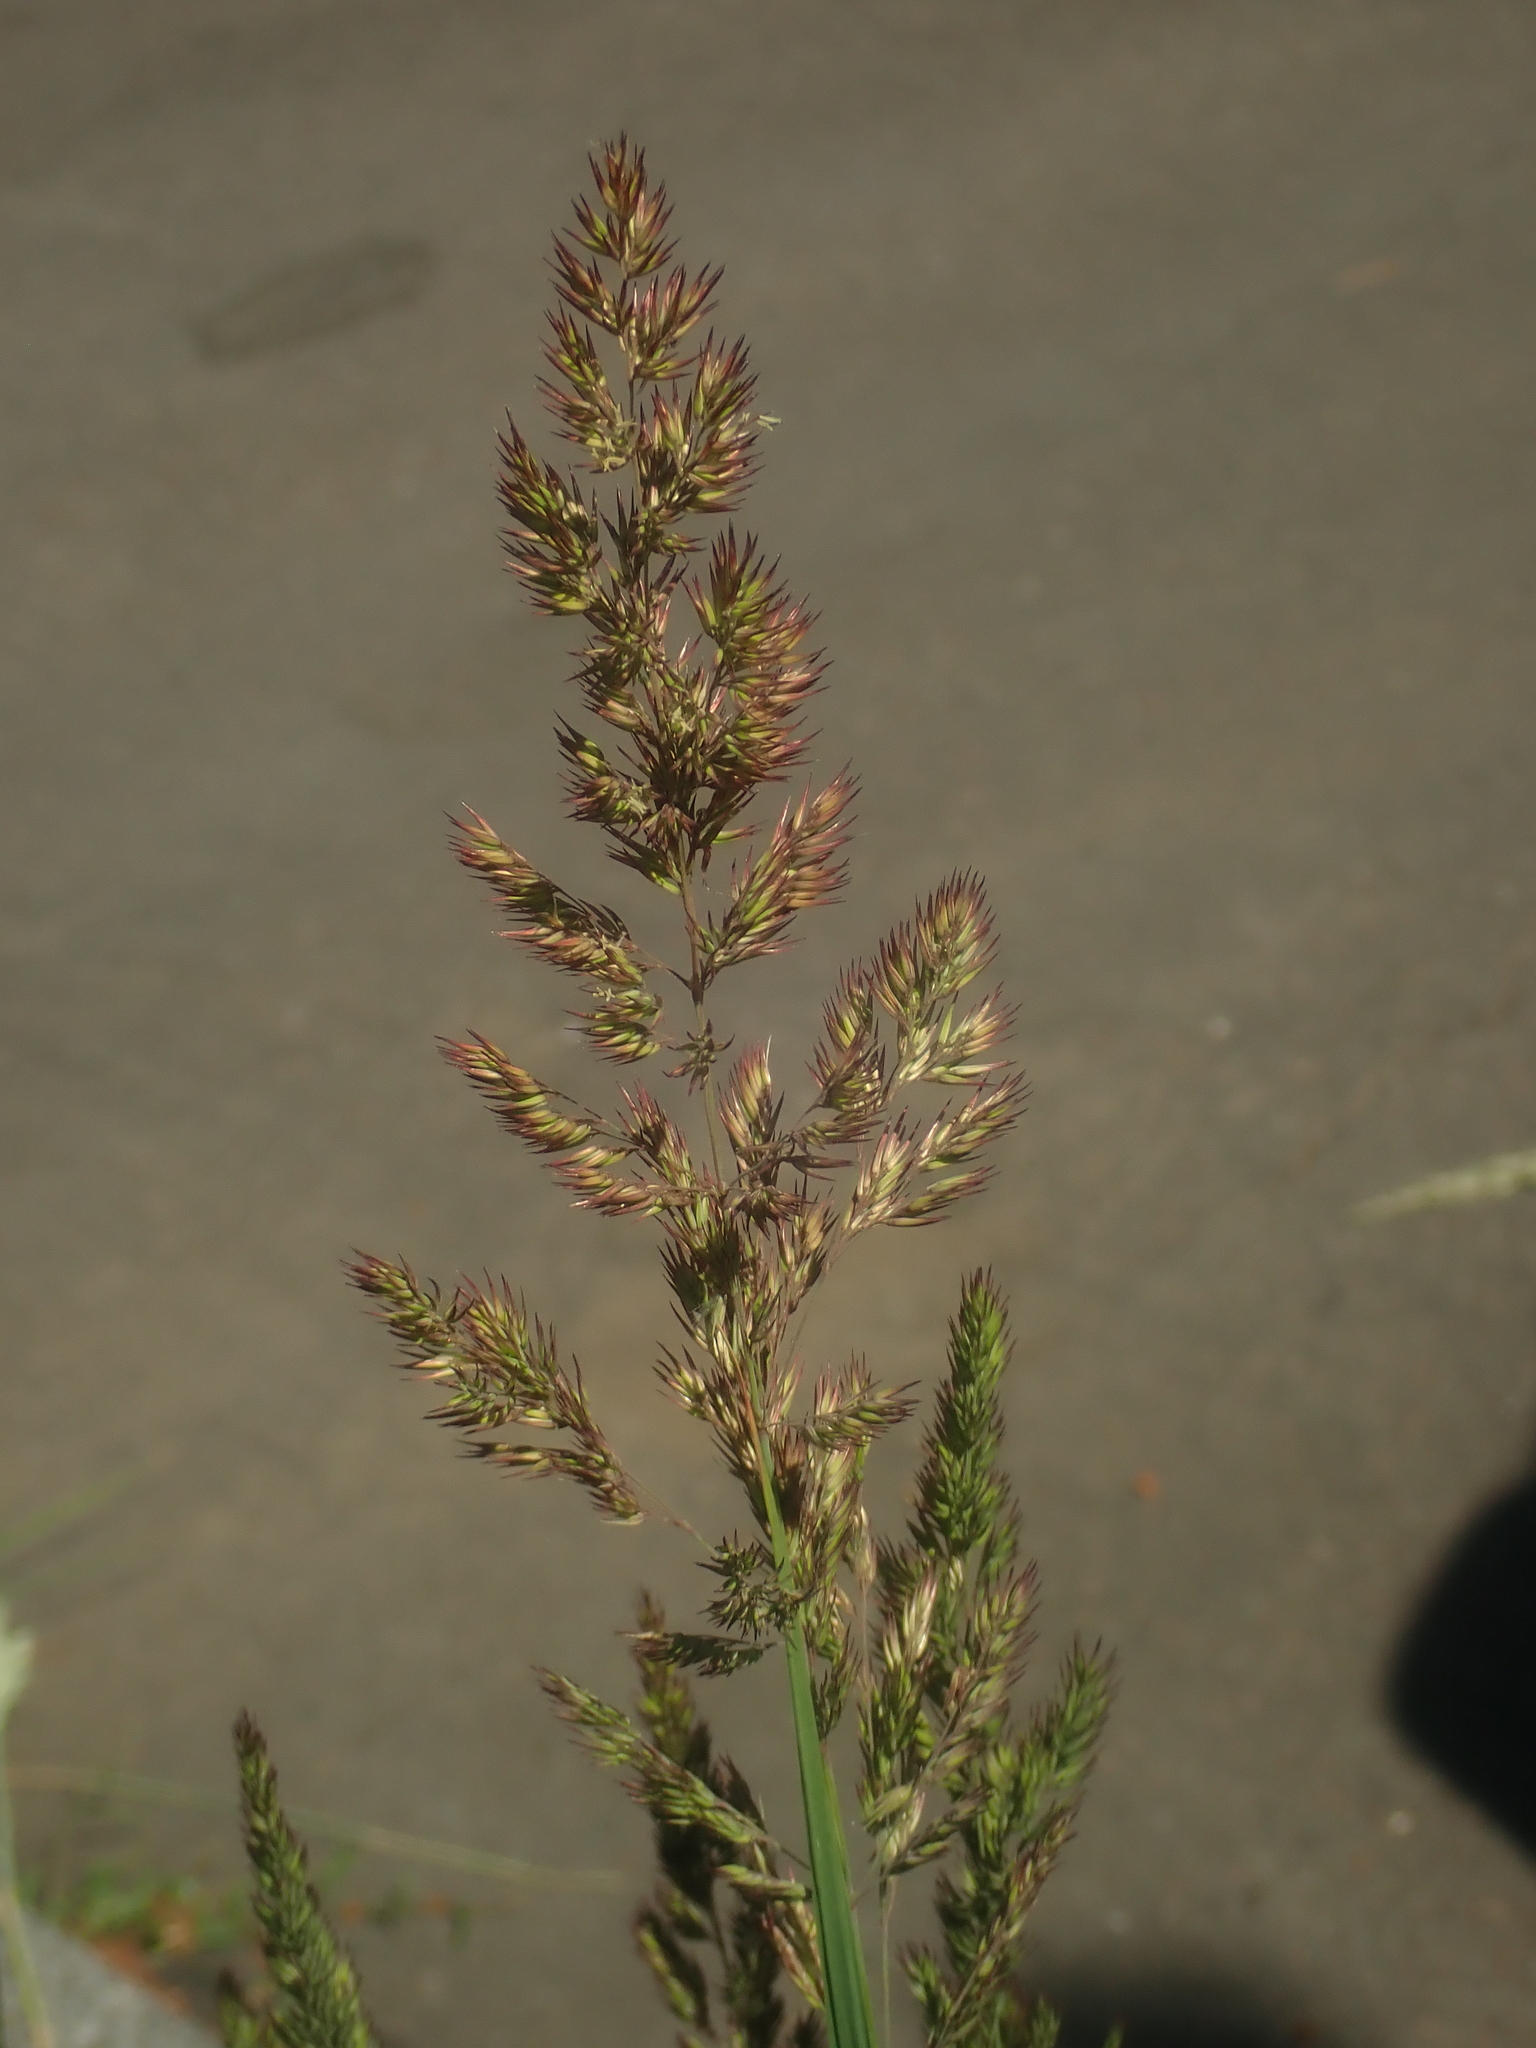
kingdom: Plantae
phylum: Tracheophyta
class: Liliopsida
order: Poales
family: Poaceae
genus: Calamagrostis
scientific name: Calamagrostis epigejos
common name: Wood small-reed
